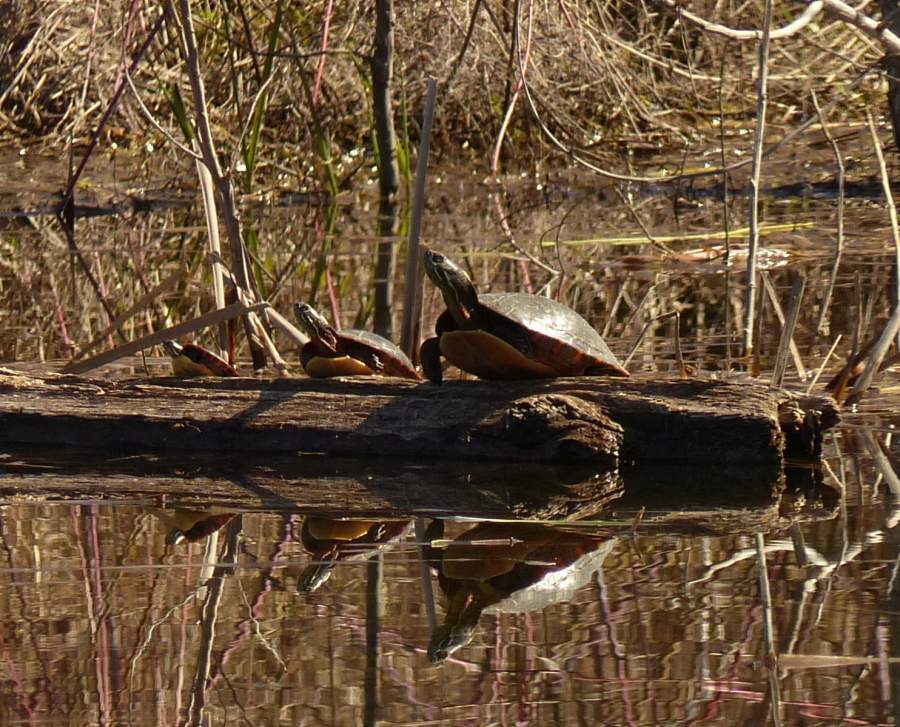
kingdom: Animalia
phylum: Chordata
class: Testudines
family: Emydidae
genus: Chrysemys
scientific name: Chrysemys picta
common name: Painted turtle
